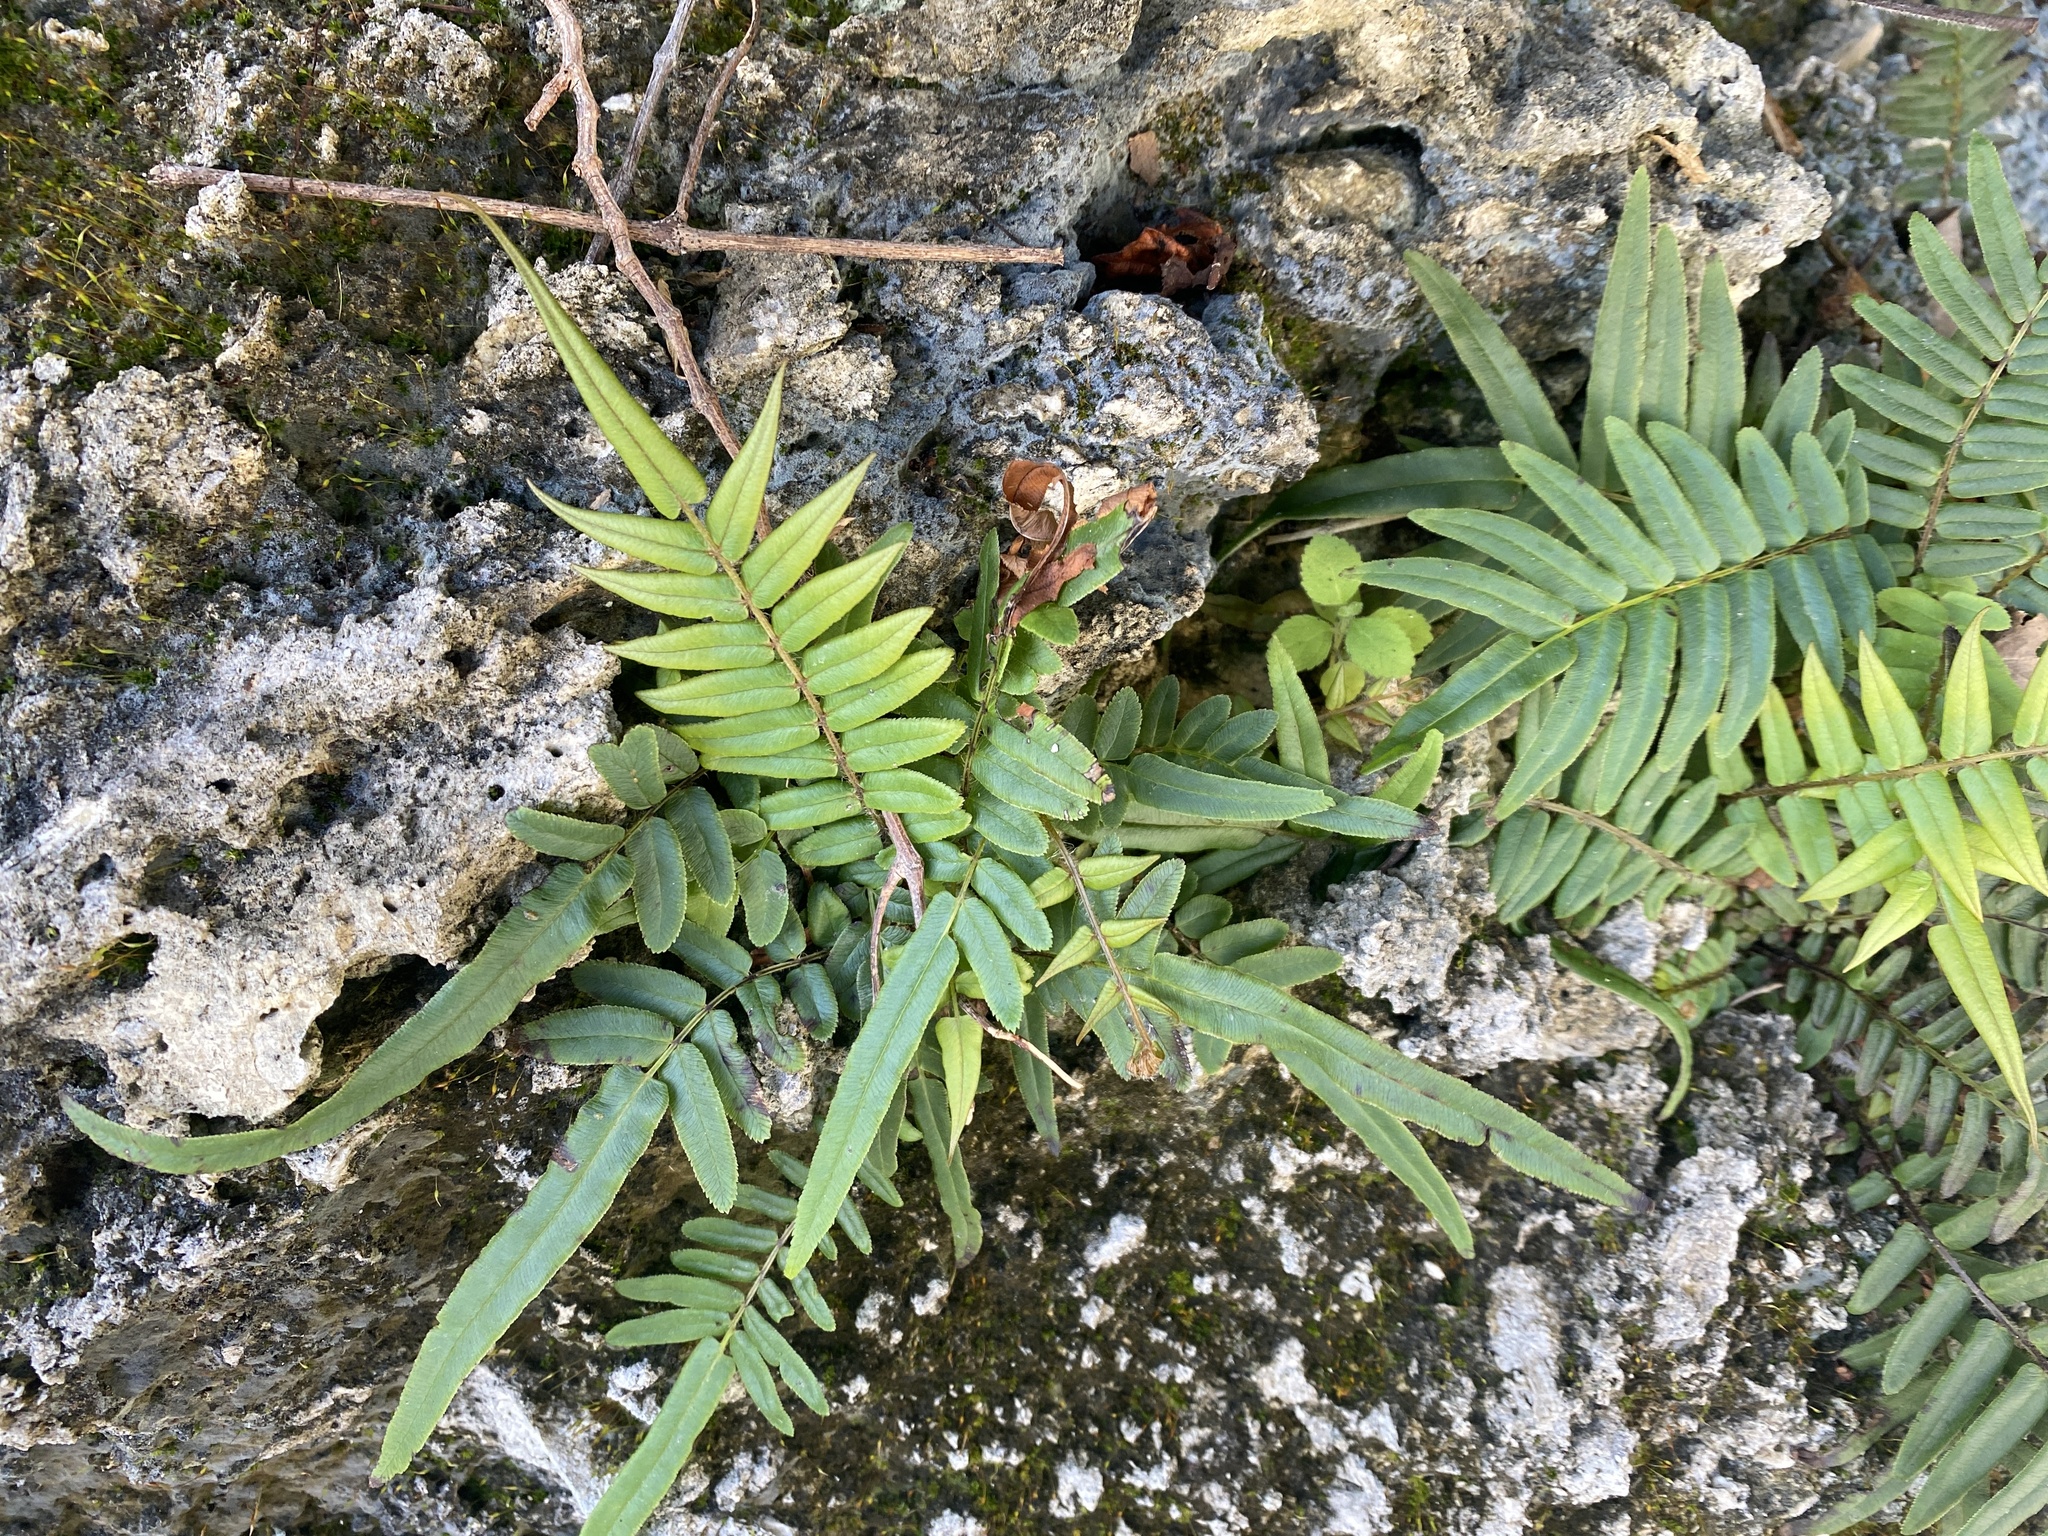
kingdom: Plantae
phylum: Tracheophyta
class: Polypodiopsida
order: Polypodiales
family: Pteridaceae
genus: Pteris
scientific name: Pteris vittata
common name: Ladder brake
